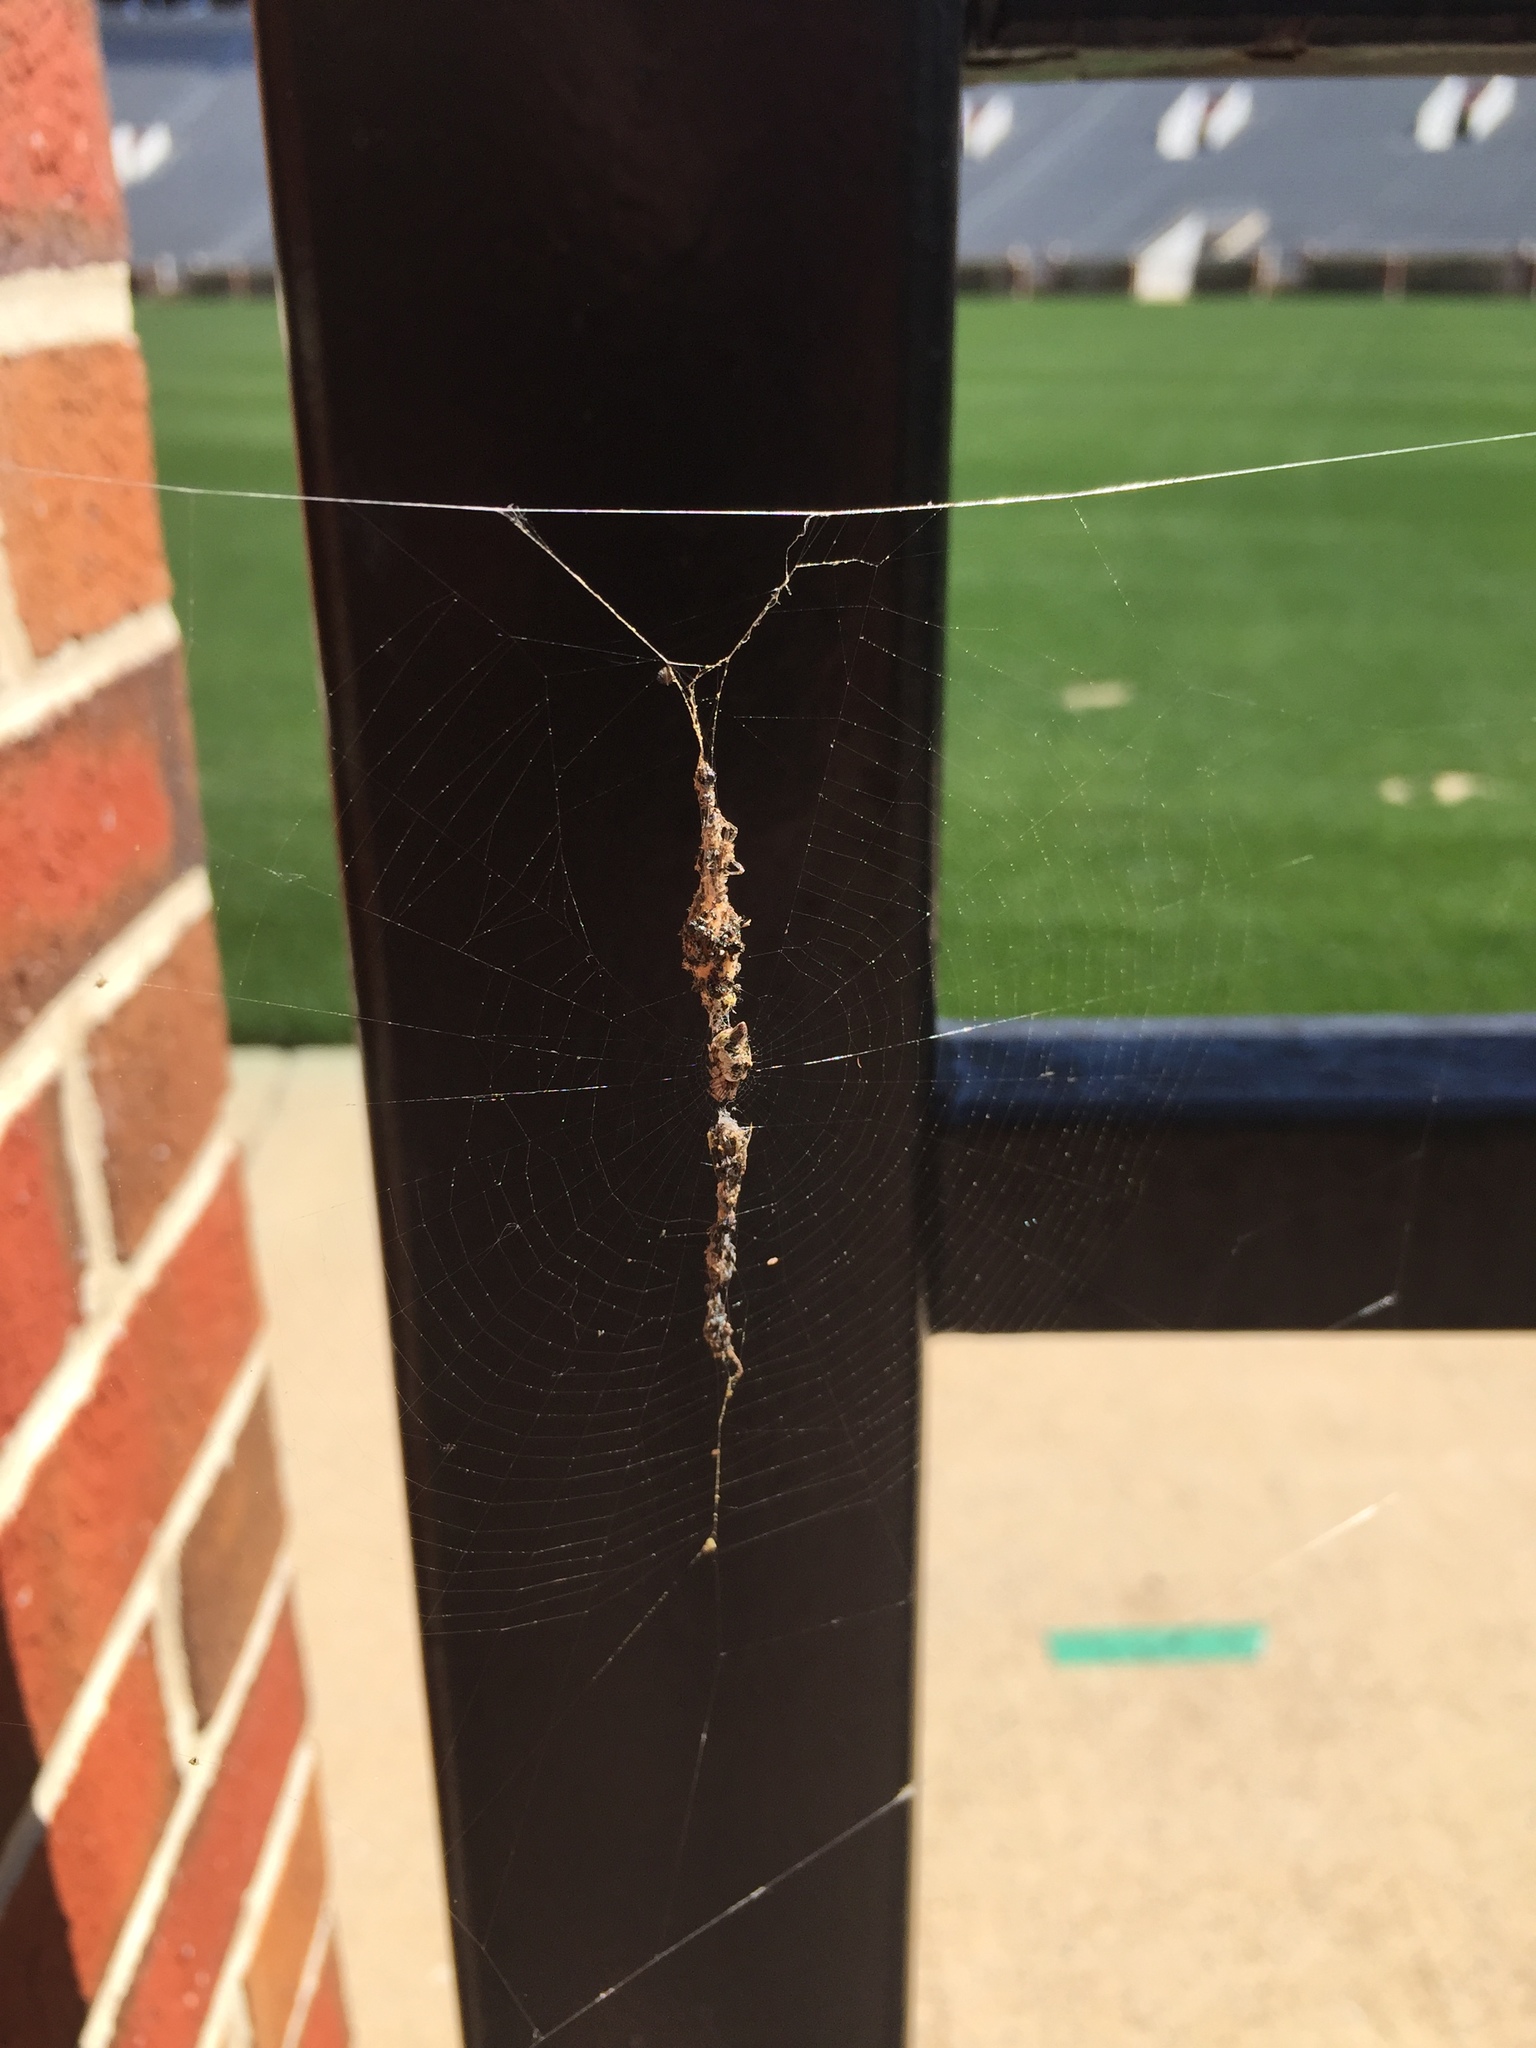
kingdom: Animalia
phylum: Arthropoda
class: Arachnida
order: Araneae
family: Araneidae
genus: Cyclosa
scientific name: Cyclosa turbinata
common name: Orb weavers
